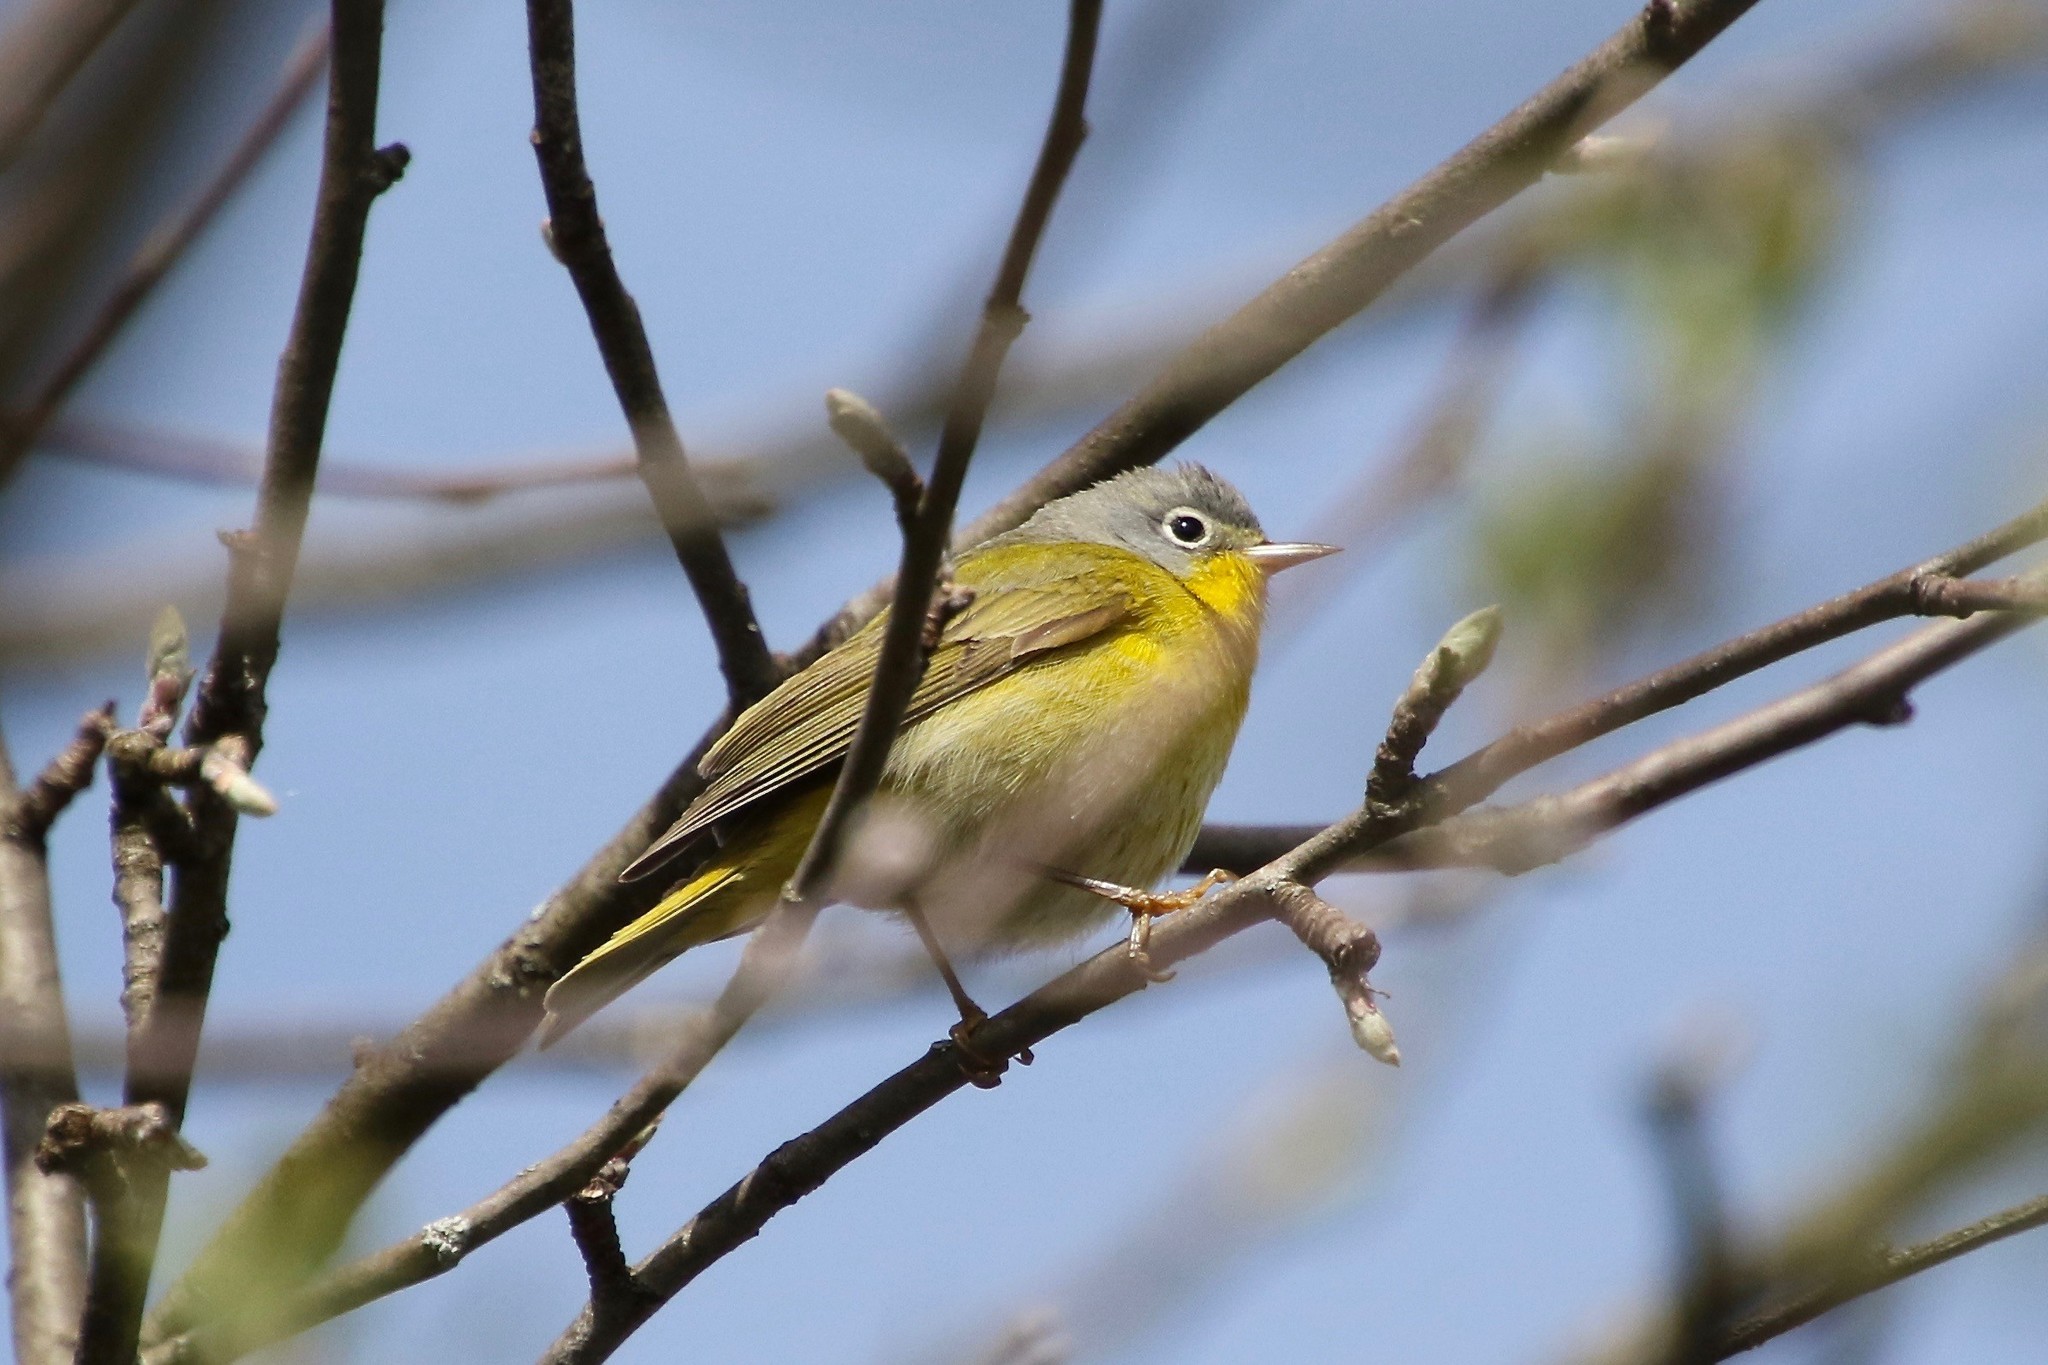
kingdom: Animalia
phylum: Chordata
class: Aves
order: Passeriformes
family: Parulidae
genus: Leiothlypis
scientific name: Leiothlypis ruficapilla
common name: Nashville warbler
